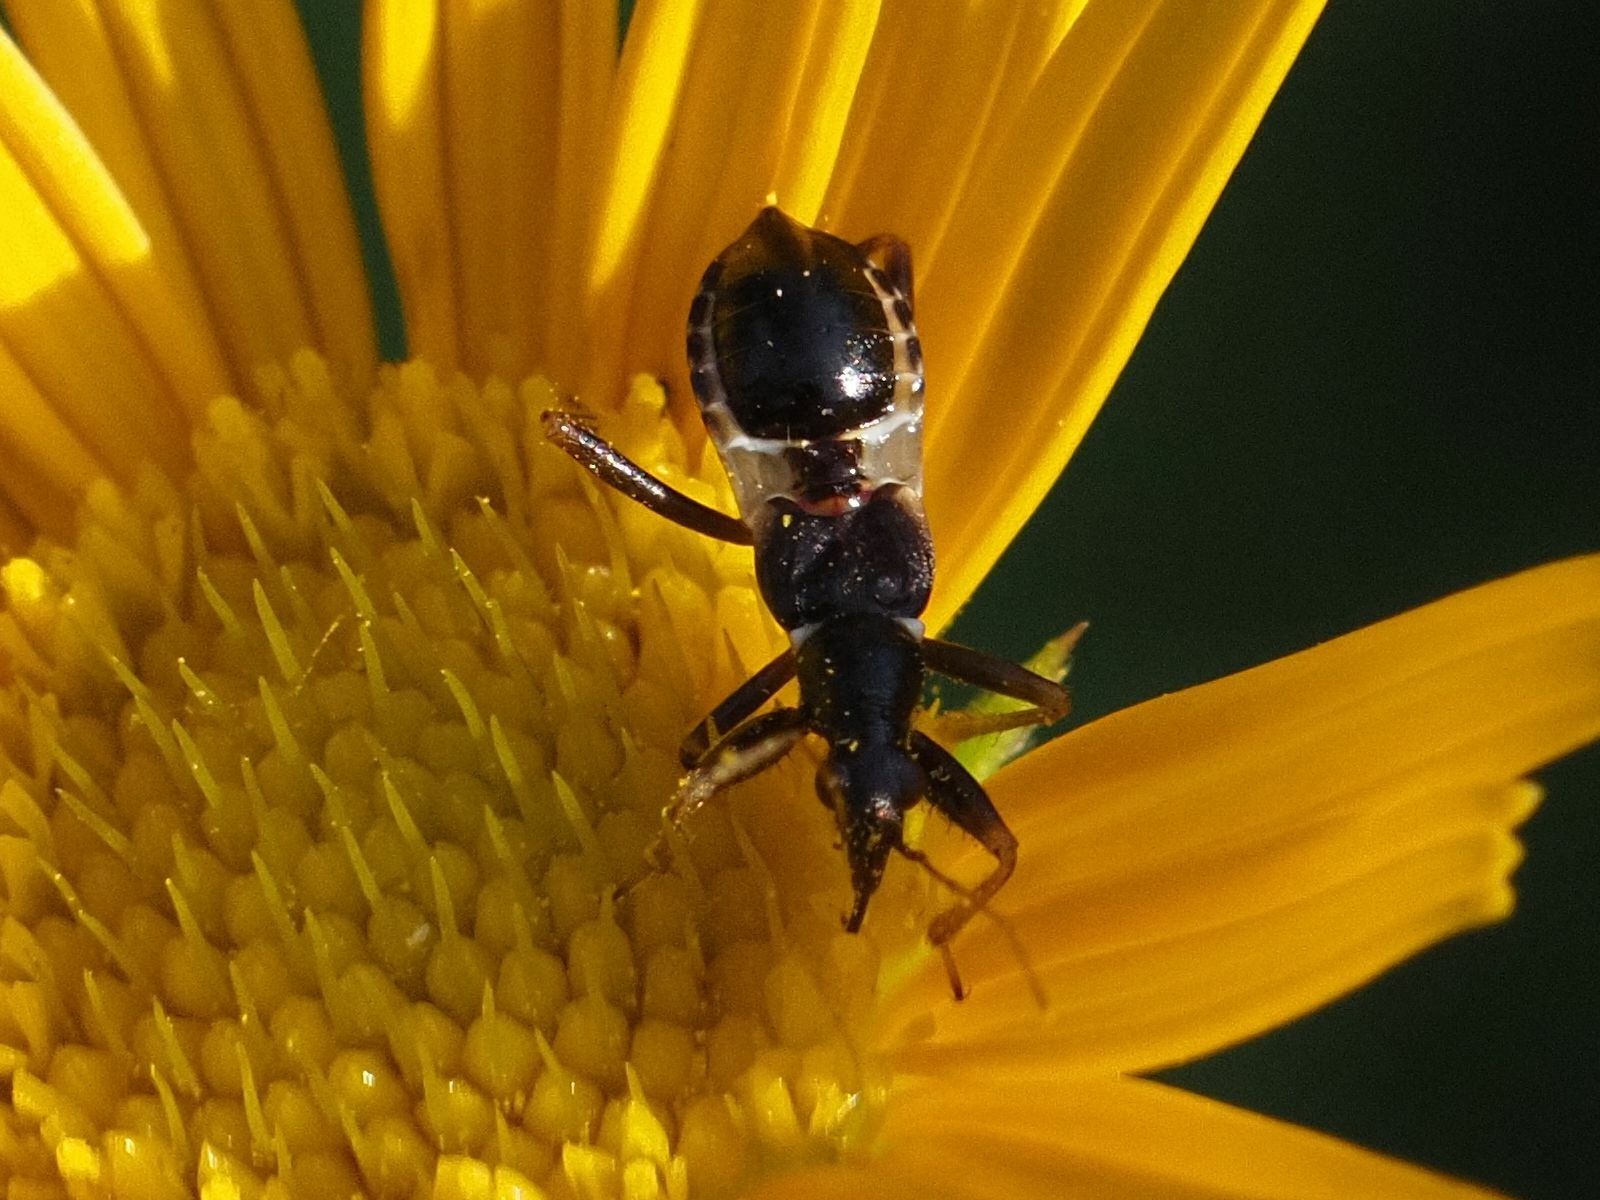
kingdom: Animalia
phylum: Arthropoda
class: Insecta
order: Hemiptera
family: Nabidae
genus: Himacerus
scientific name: Himacerus mirmicoides
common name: Ant damsel bug
